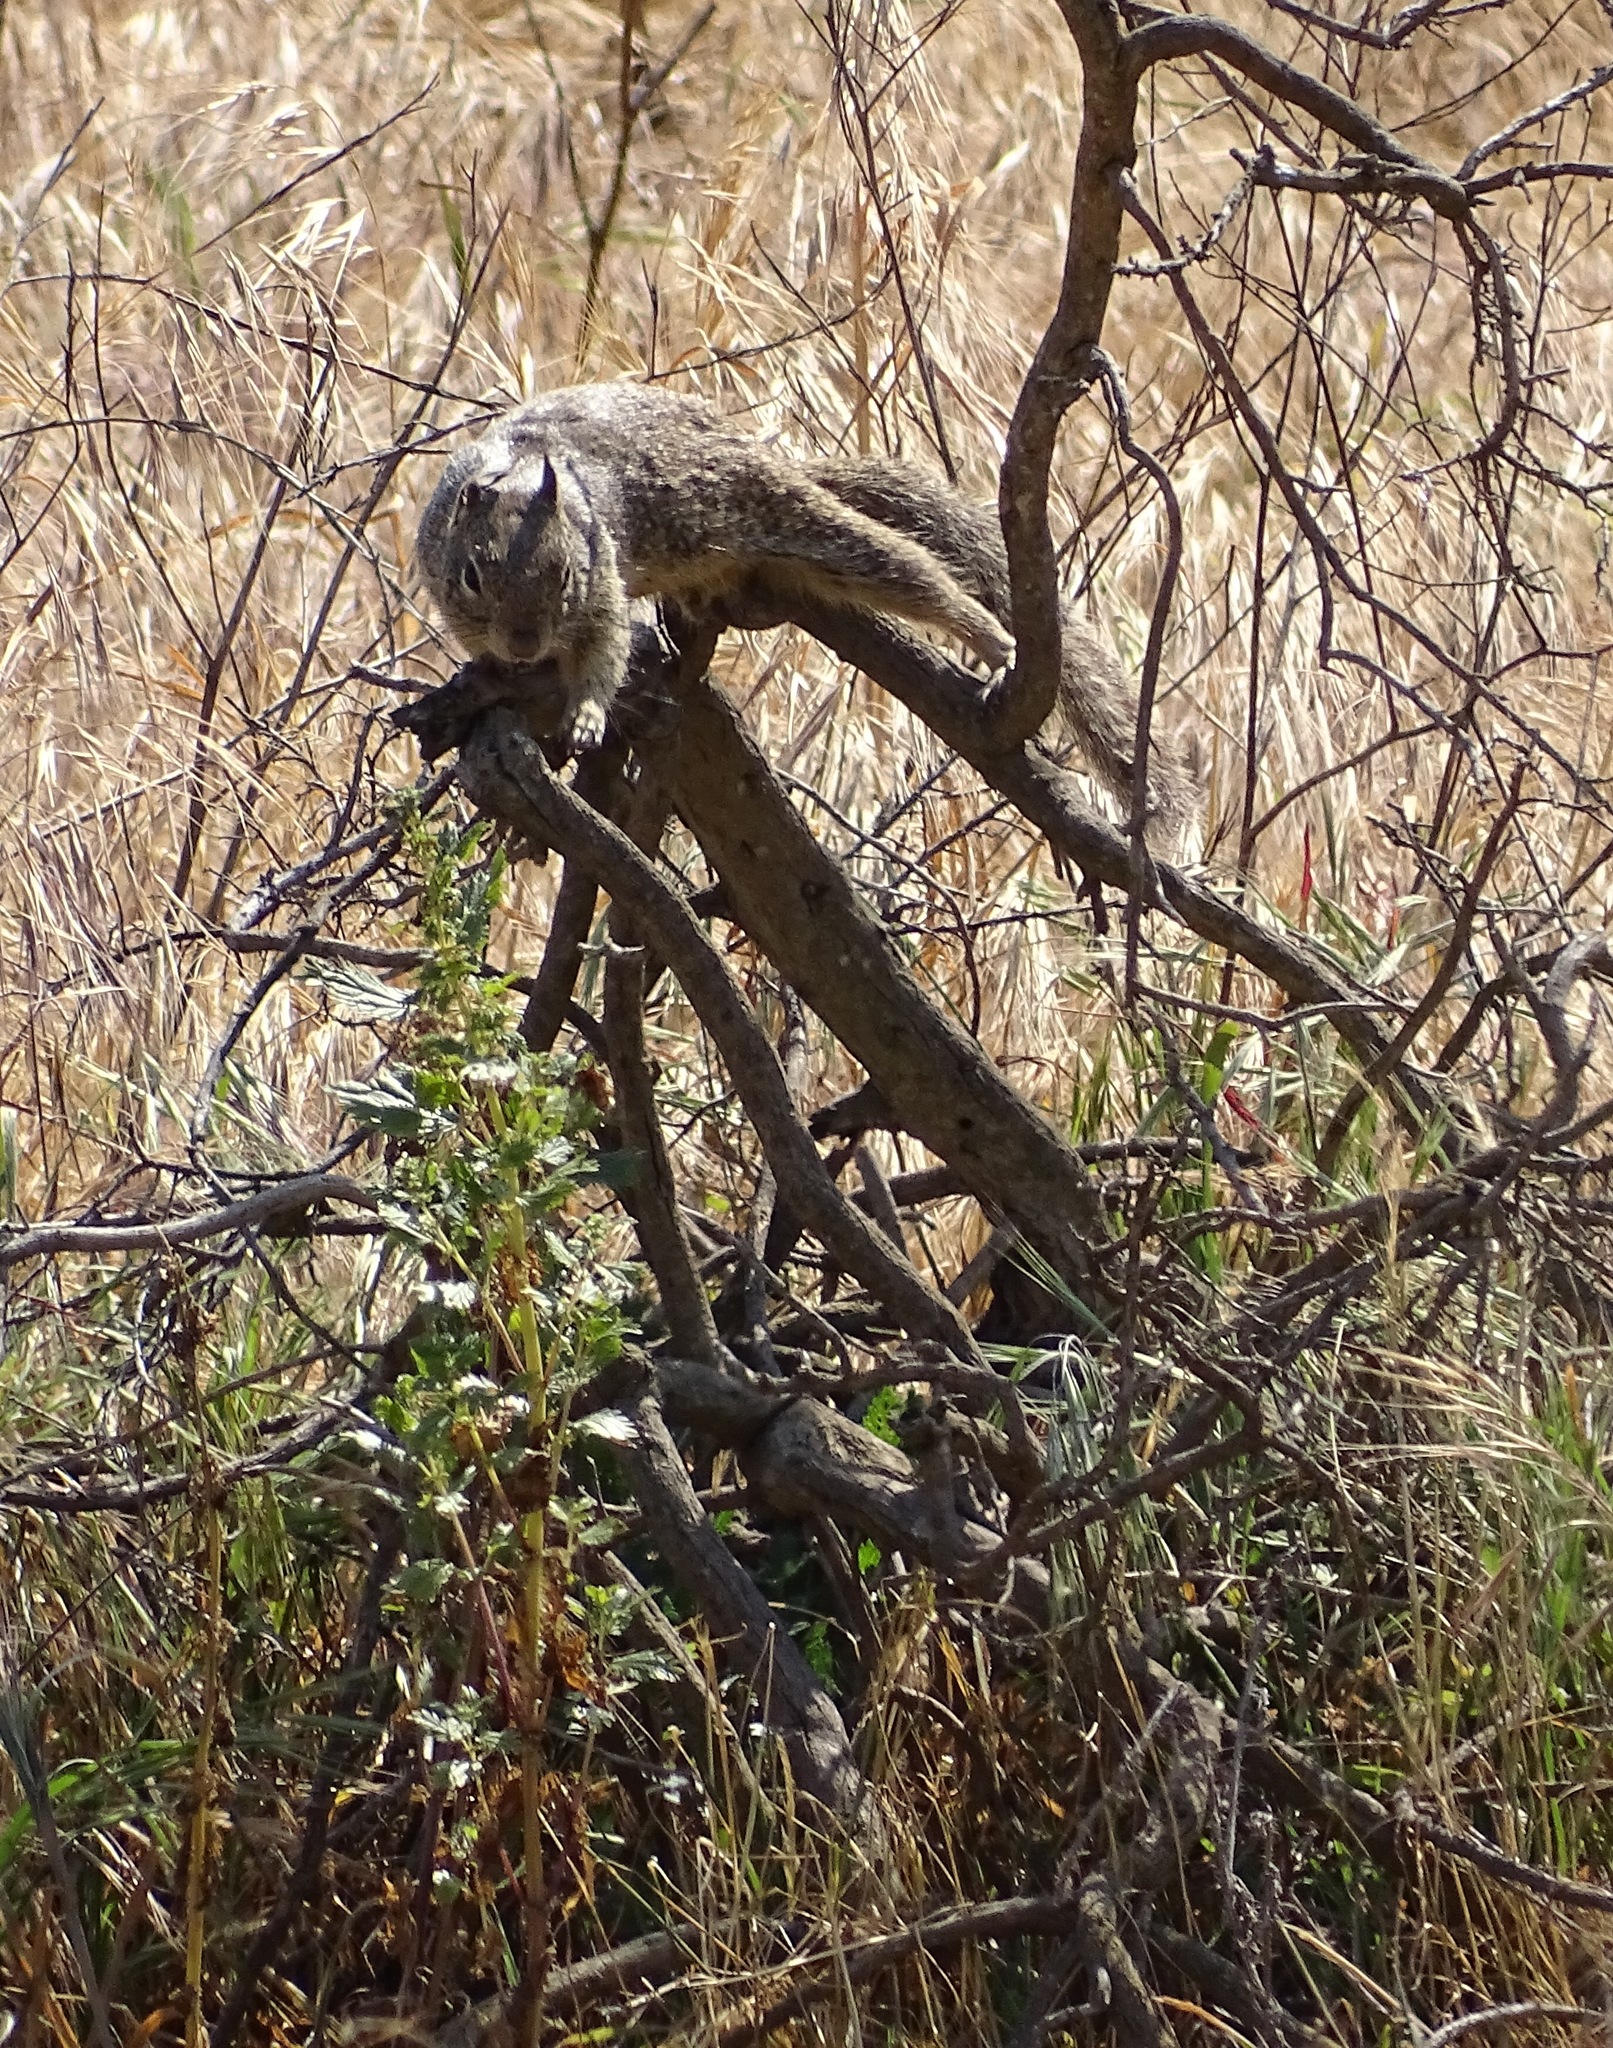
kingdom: Animalia
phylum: Chordata
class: Mammalia
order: Rodentia
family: Sciuridae
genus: Otospermophilus
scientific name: Otospermophilus beecheyi
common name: California ground squirrel
